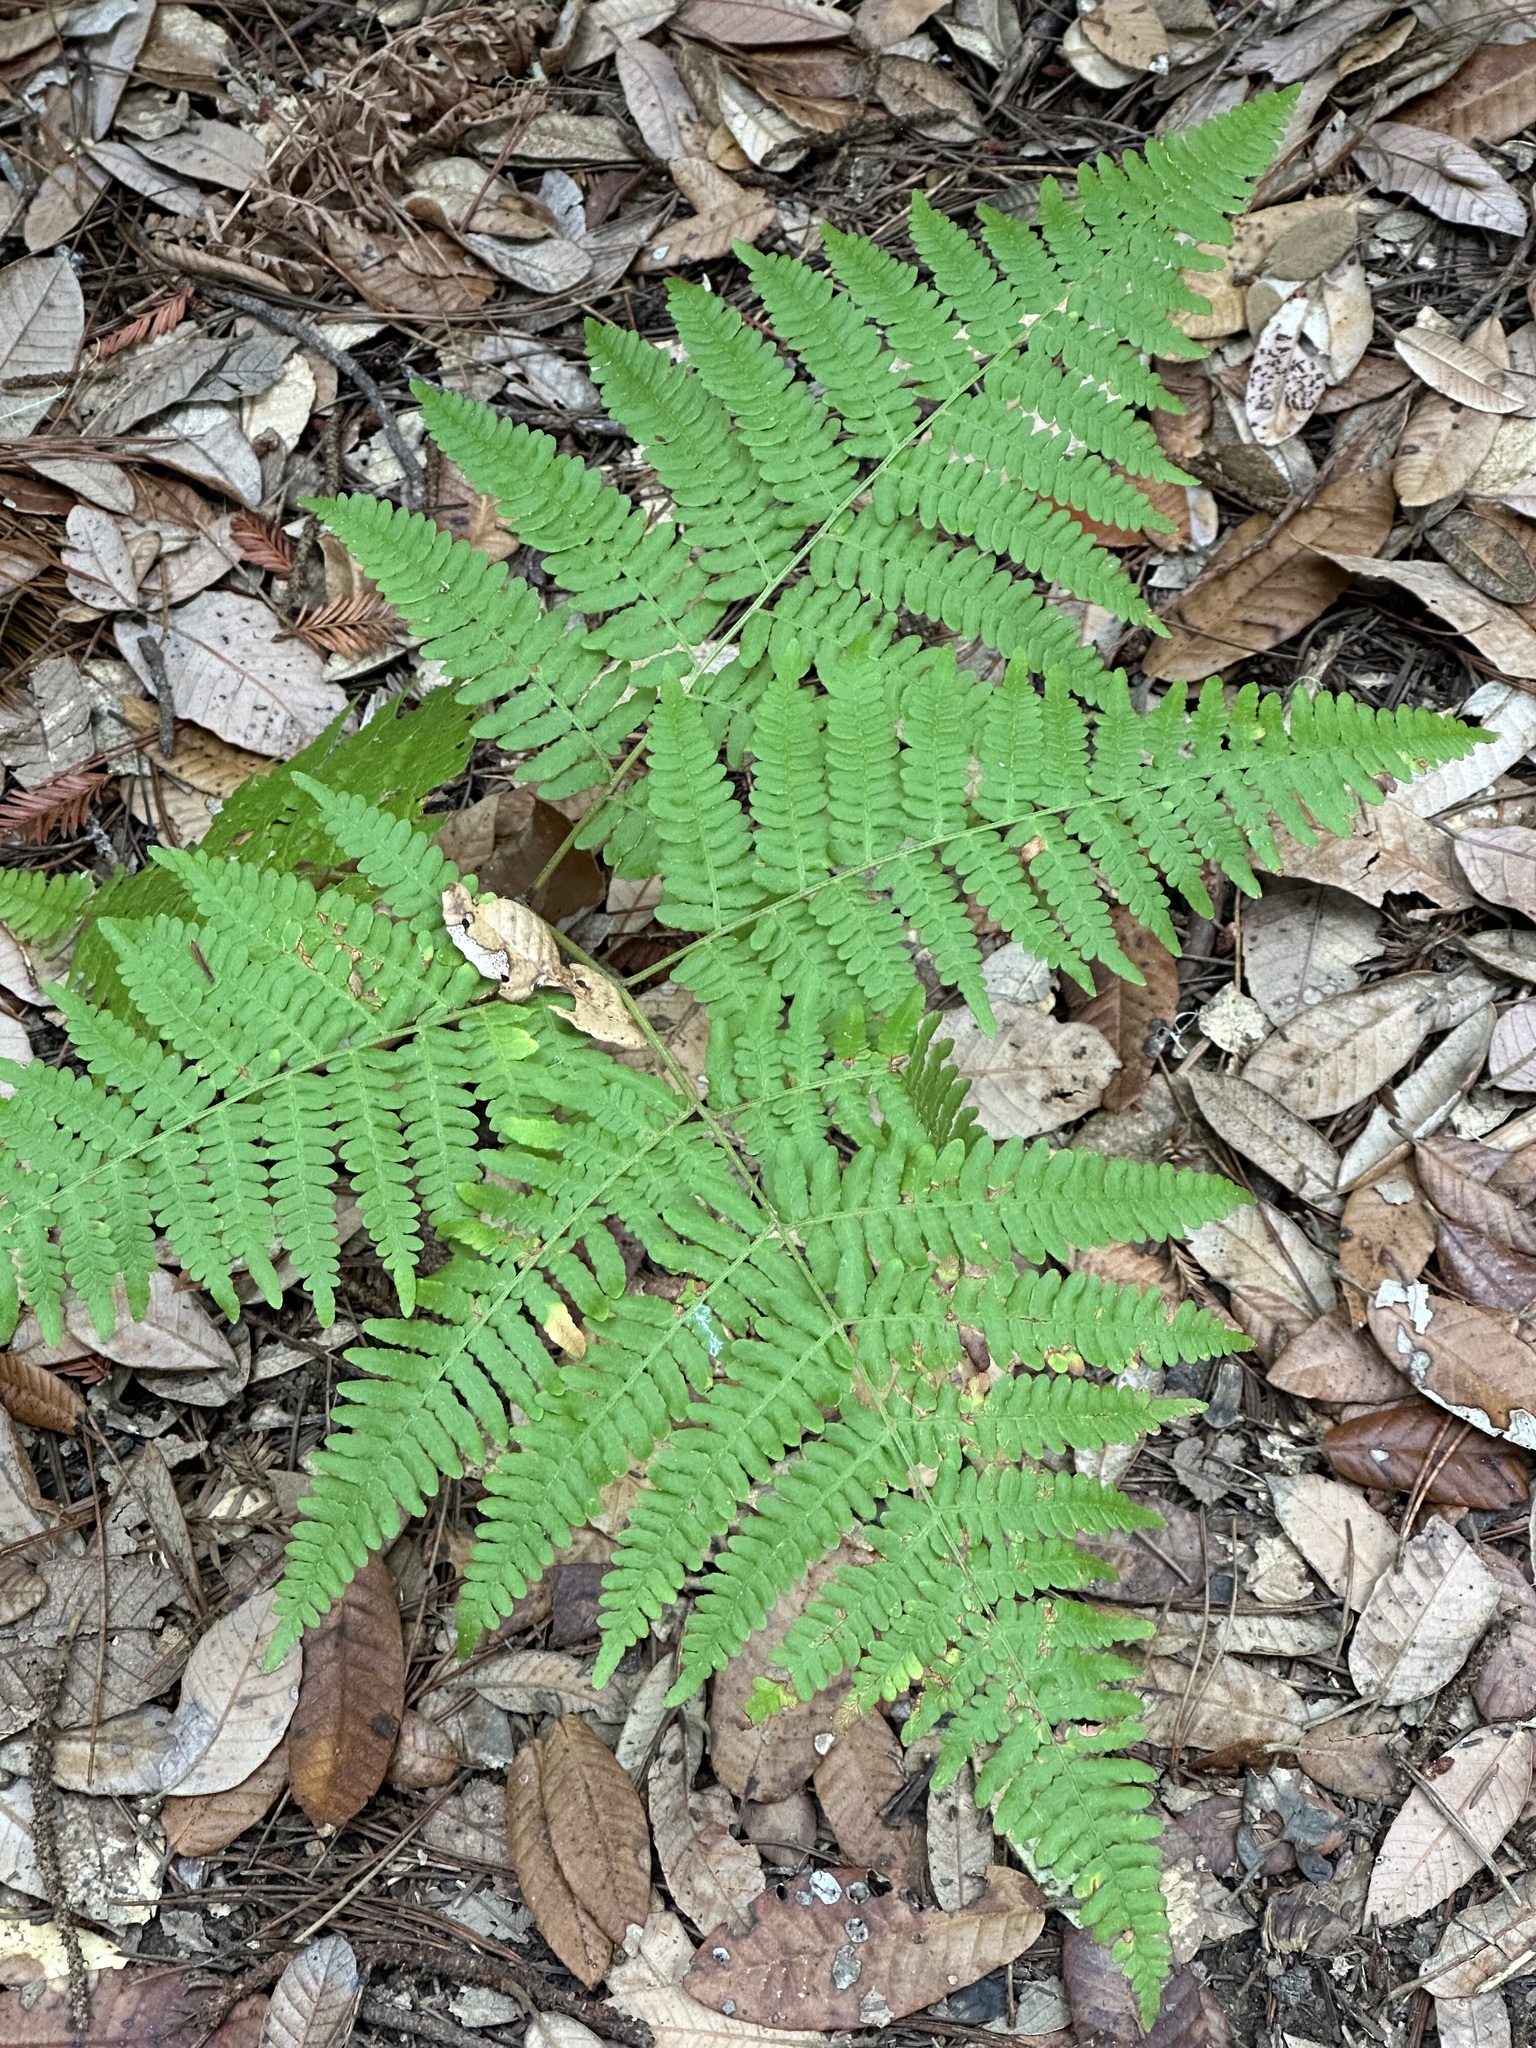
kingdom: Plantae
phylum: Tracheophyta
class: Polypodiopsida
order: Polypodiales
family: Dennstaedtiaceae
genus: Pteridium
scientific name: Pteridium aquilinum
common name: Bracken
